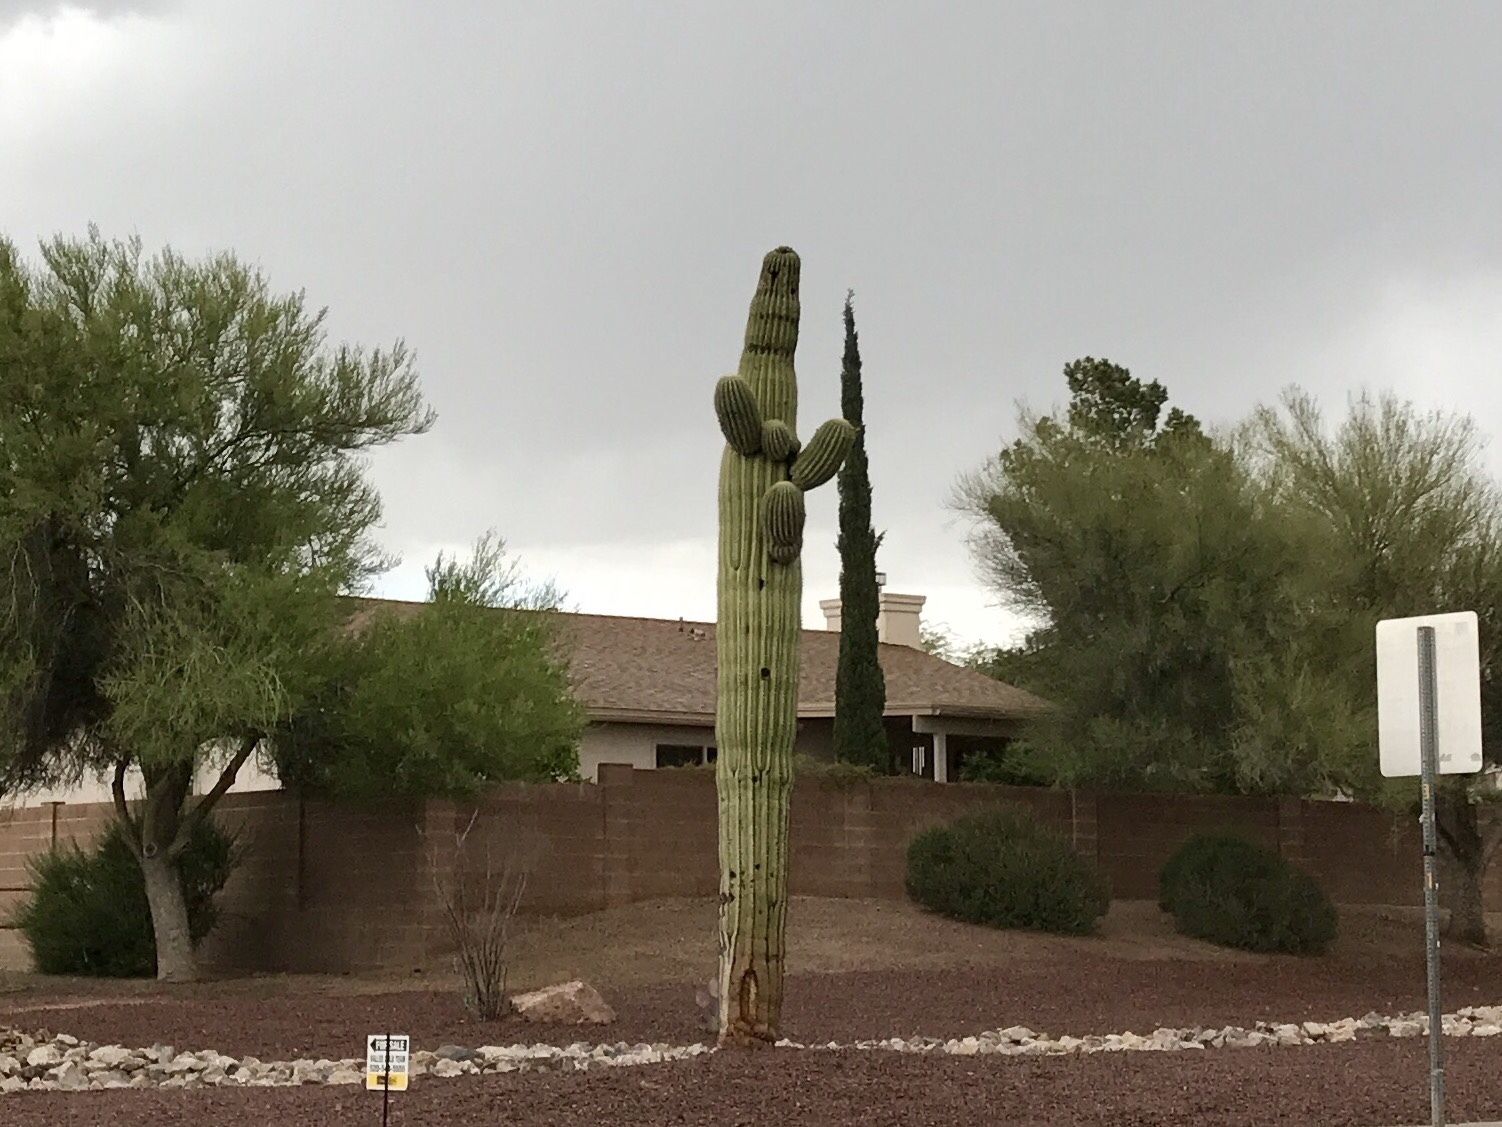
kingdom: Plantae
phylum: Tracheophyta
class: Magnoliopsida
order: Caryophyllales
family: Cactaceae
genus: Carnegiea
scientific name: Carnegiea gigantea
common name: Saguaro
